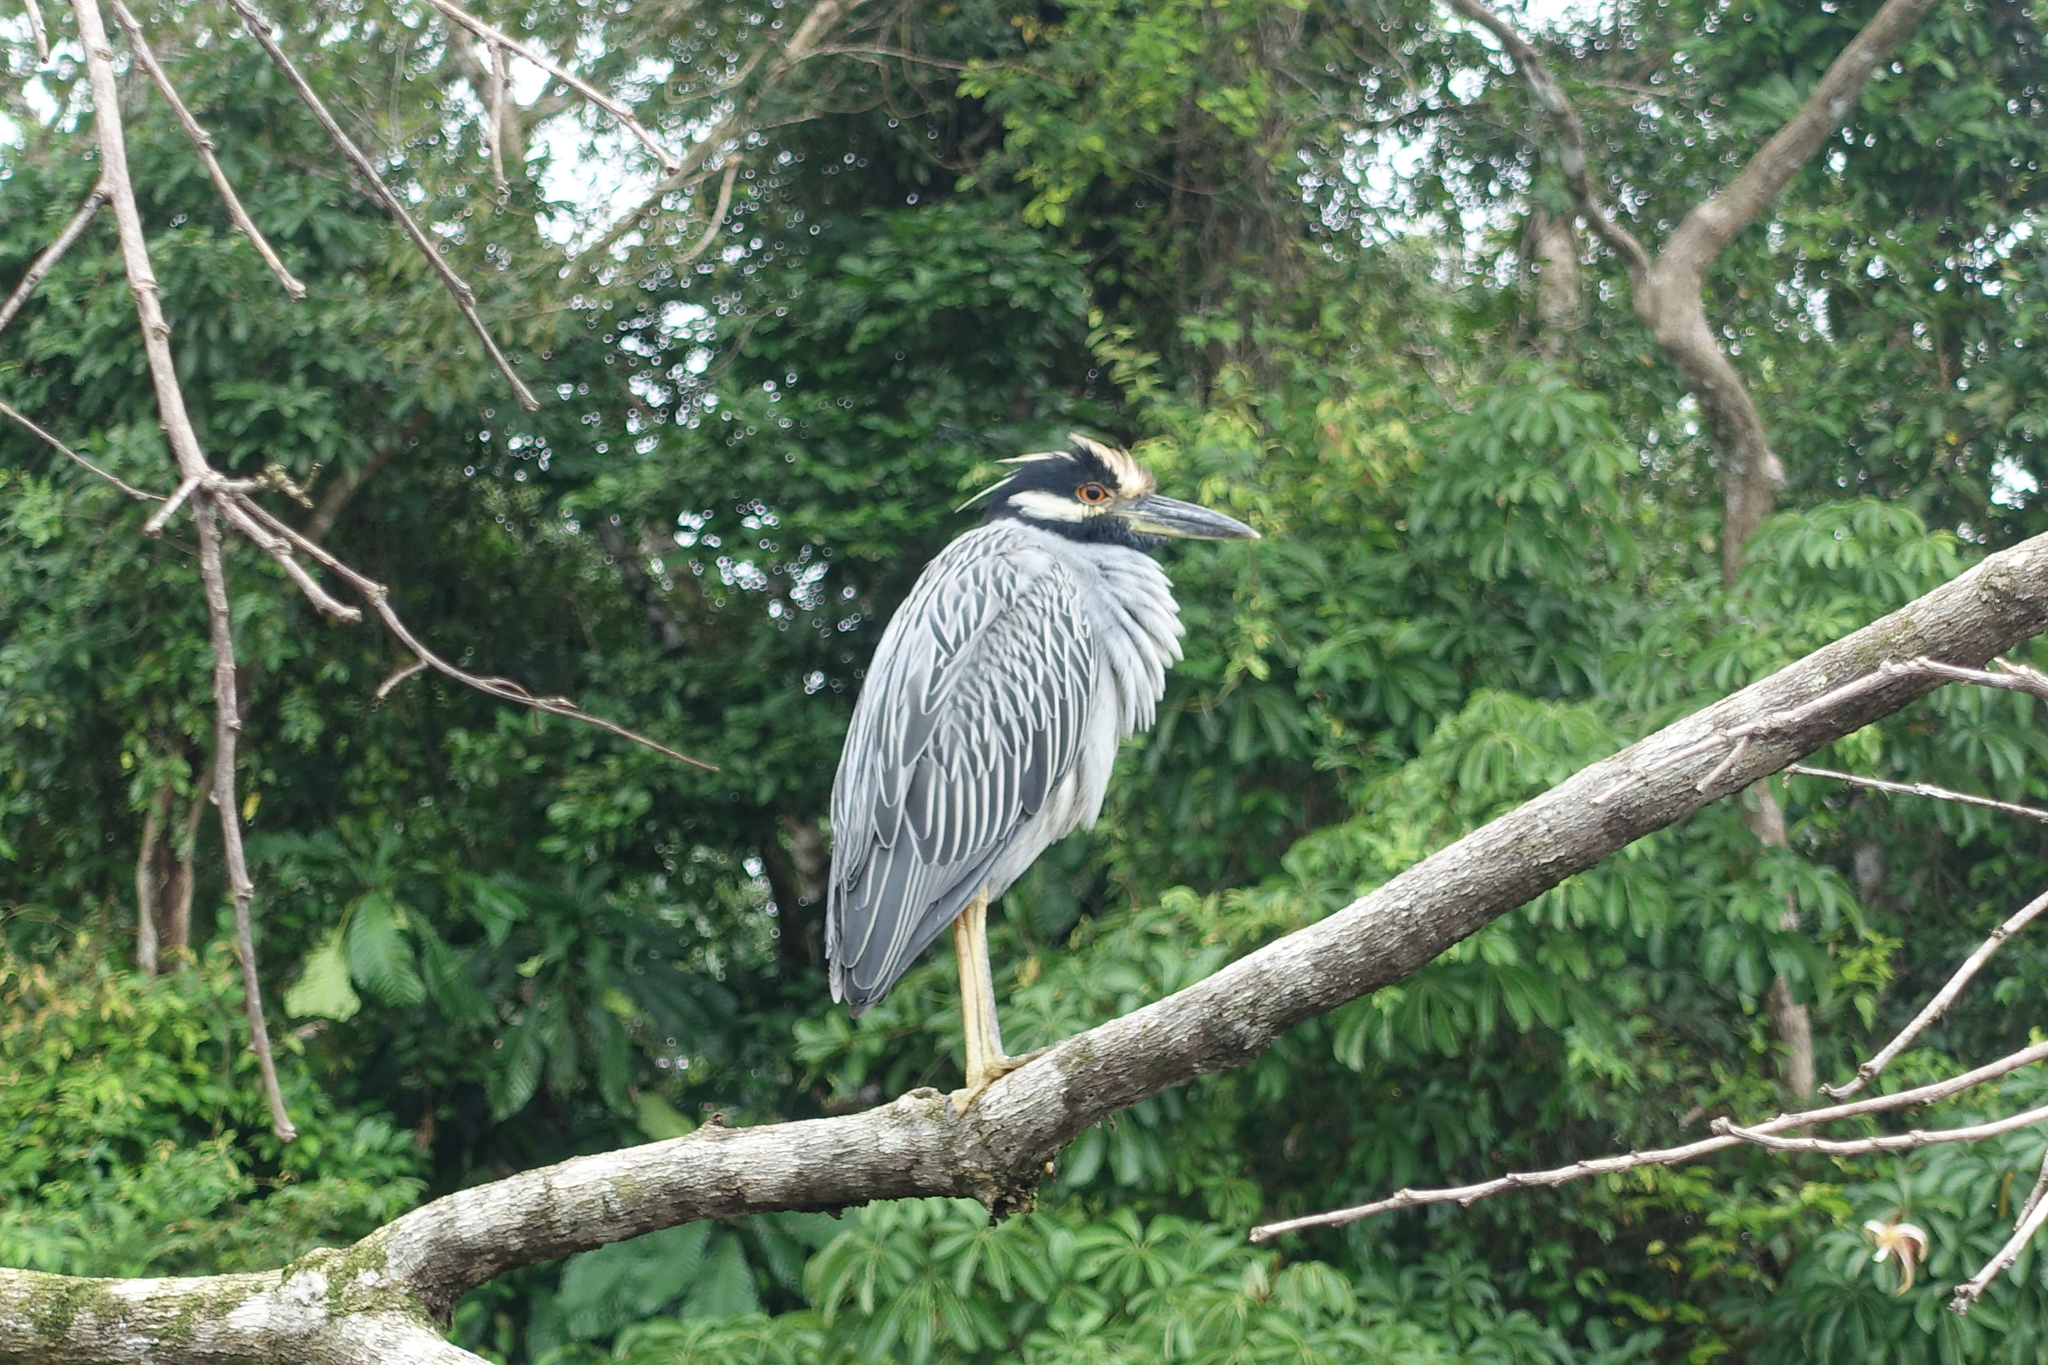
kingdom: Animalia
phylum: Chordata
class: Aves
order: Pelecaniformes
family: Ardeidae
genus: Nyctanassa
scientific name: Nyctanassa violacea
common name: Yellow-crowned night heron
